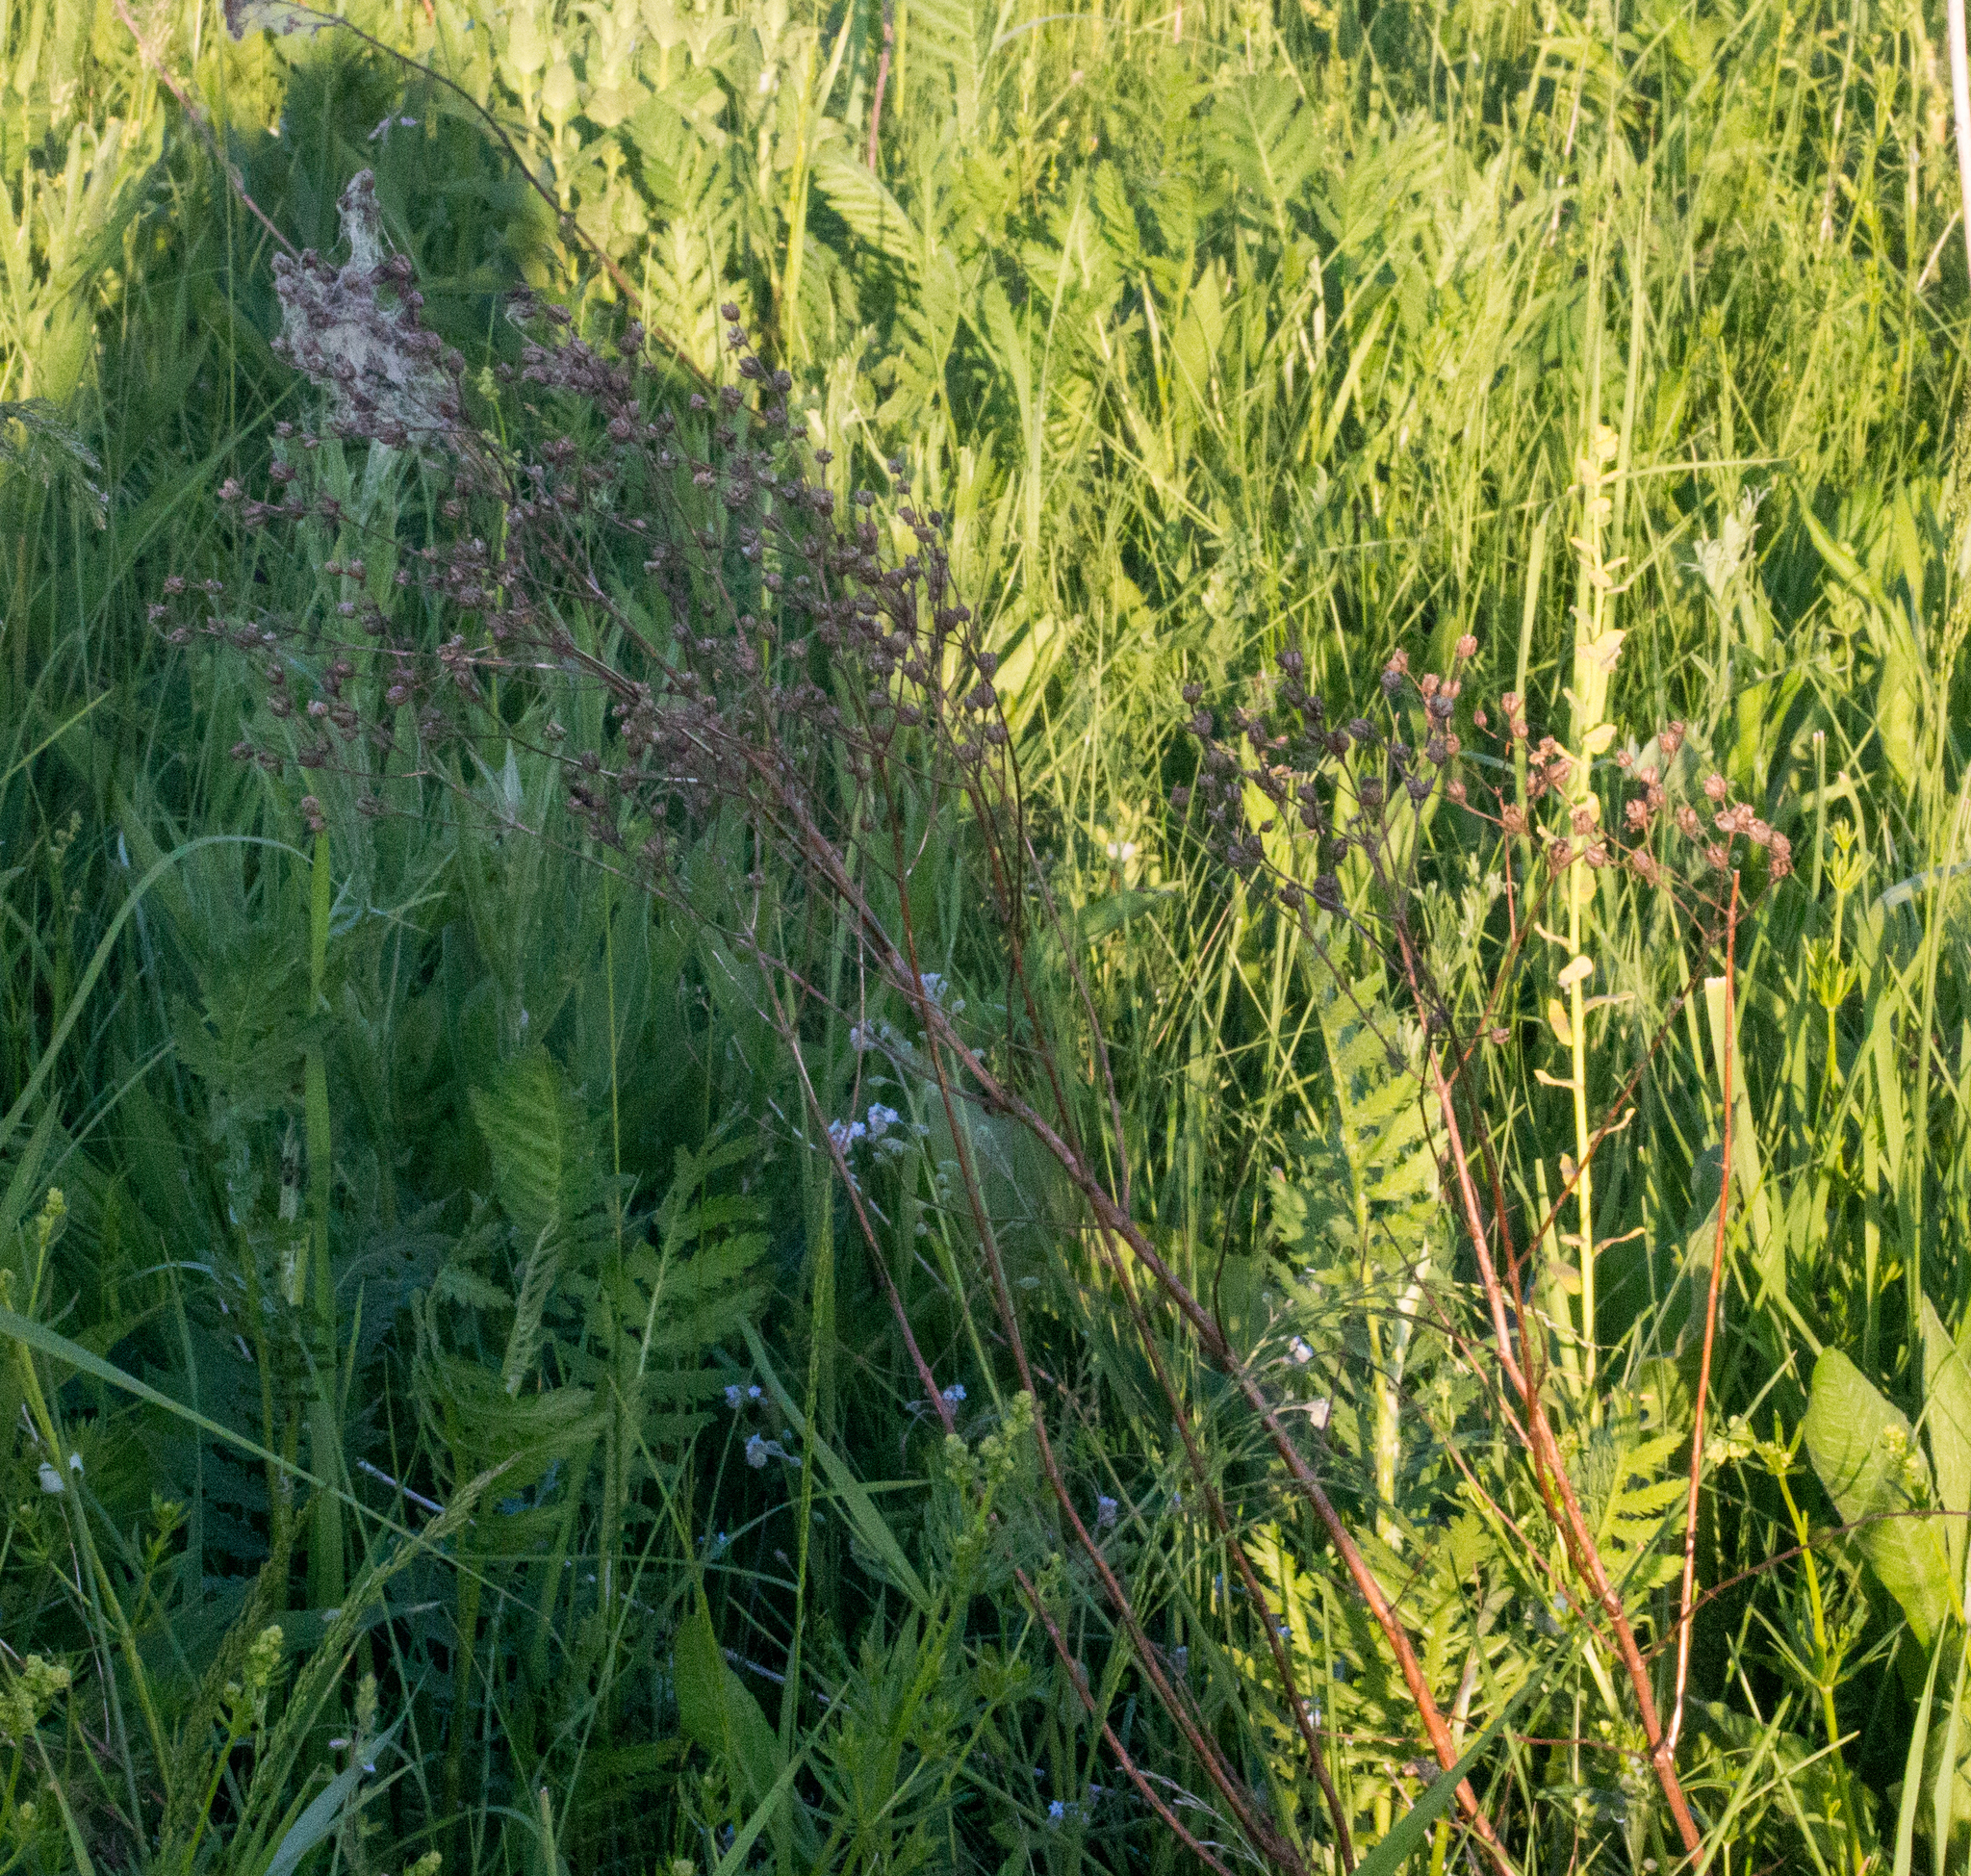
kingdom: Plantae
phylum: Tracheophyta
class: Magnoliopsida
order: Asterales
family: Asteraceae
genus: Tanacetum
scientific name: Tanacetum vulgare
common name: Common tansy
